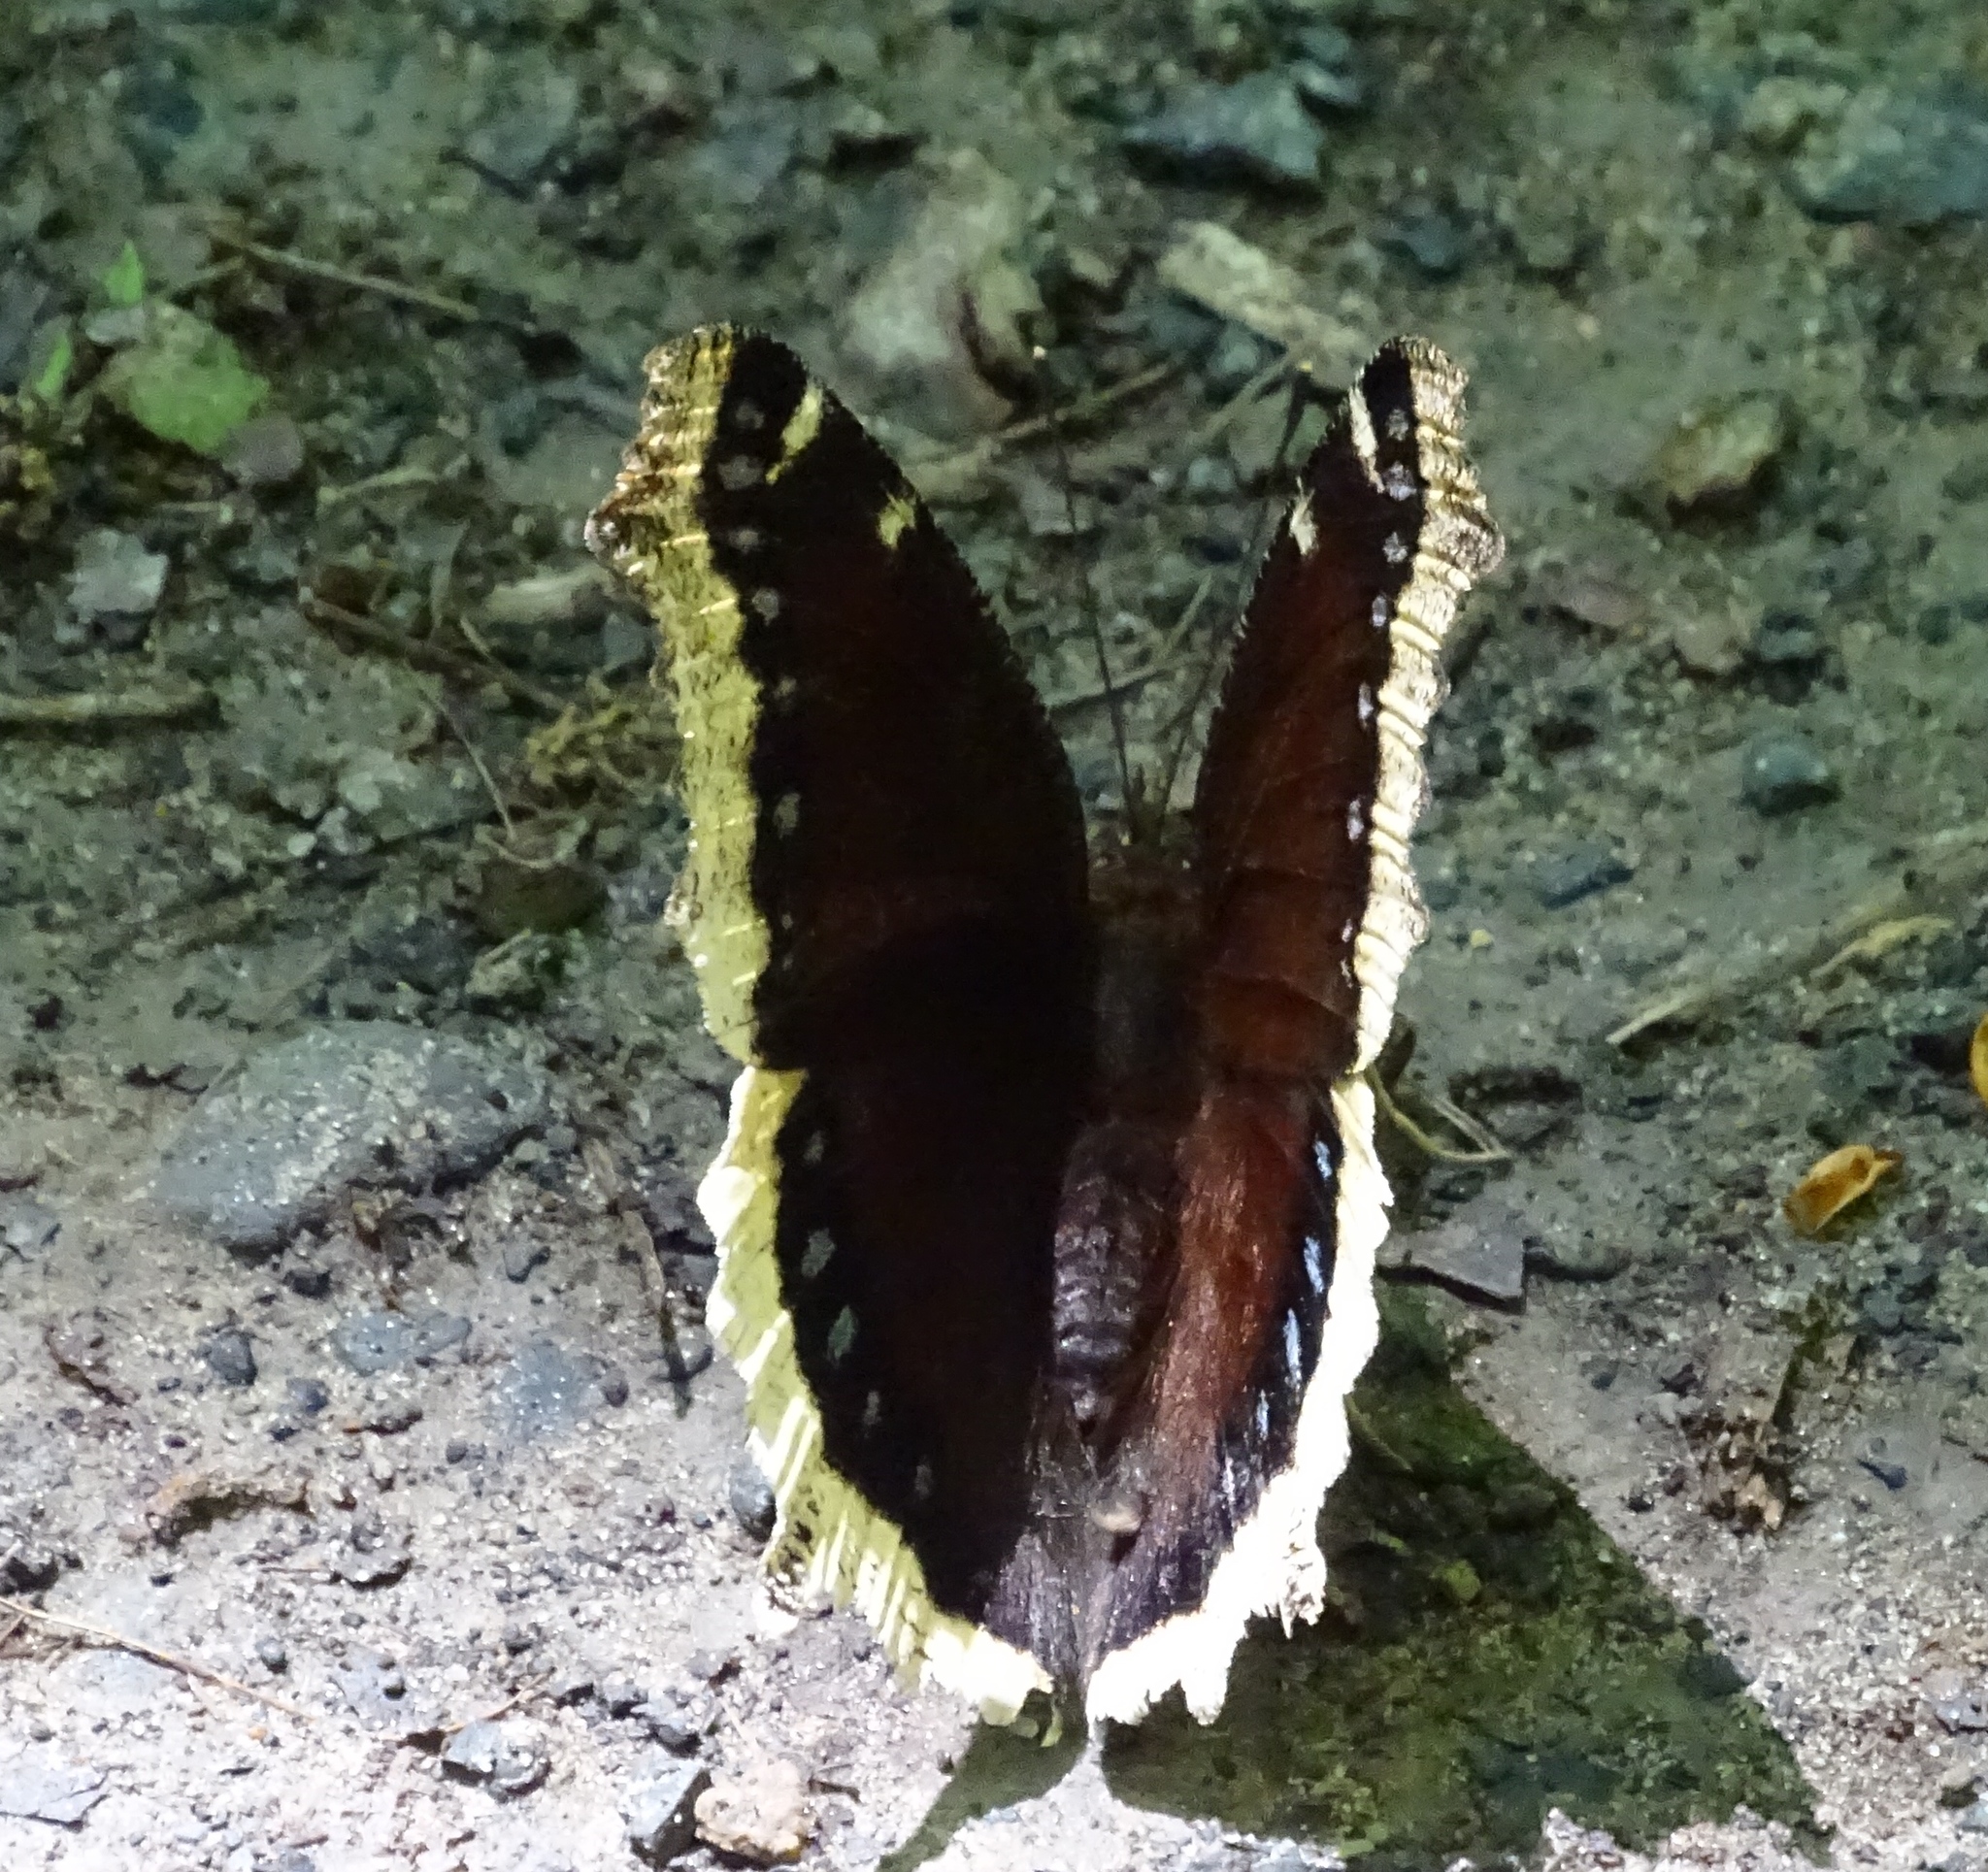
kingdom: Animalia
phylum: Arthropoda
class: Insecta
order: Lepidoptera
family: Nymphalidae
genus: Nymphalis
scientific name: Nymphalis antiopa
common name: Camberwell beauty
